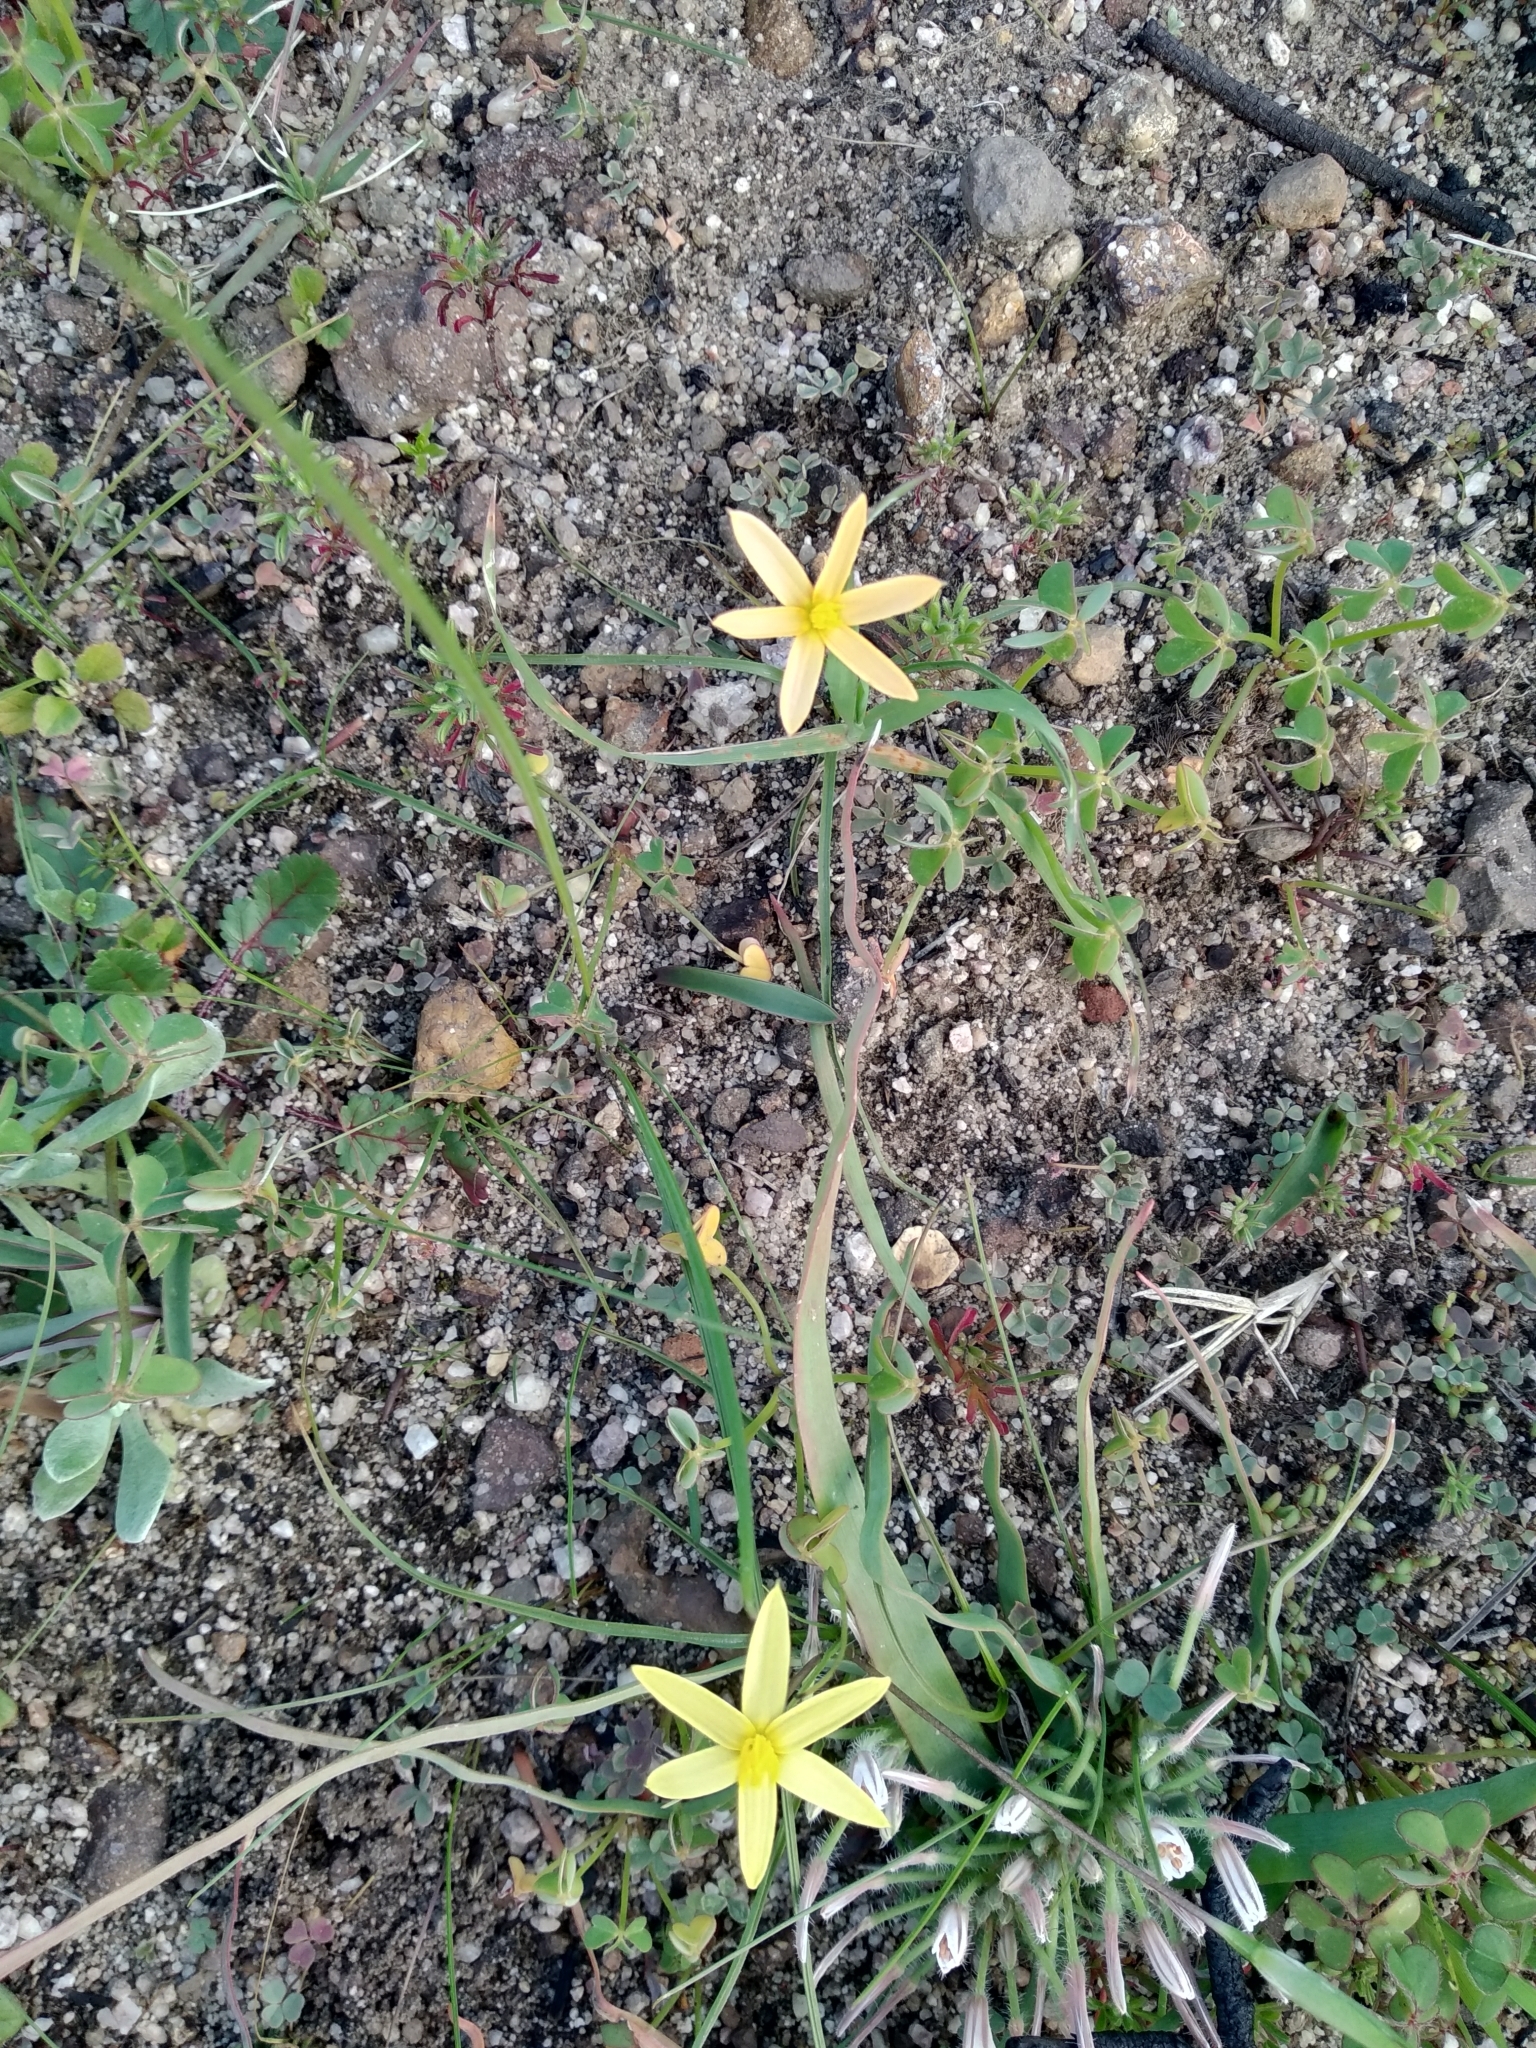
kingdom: Plantae
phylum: Tracheophyta
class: Liliopsida
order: Asparagales
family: Hypoxidaceae
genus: Pauridia
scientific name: Pauridia serrata
